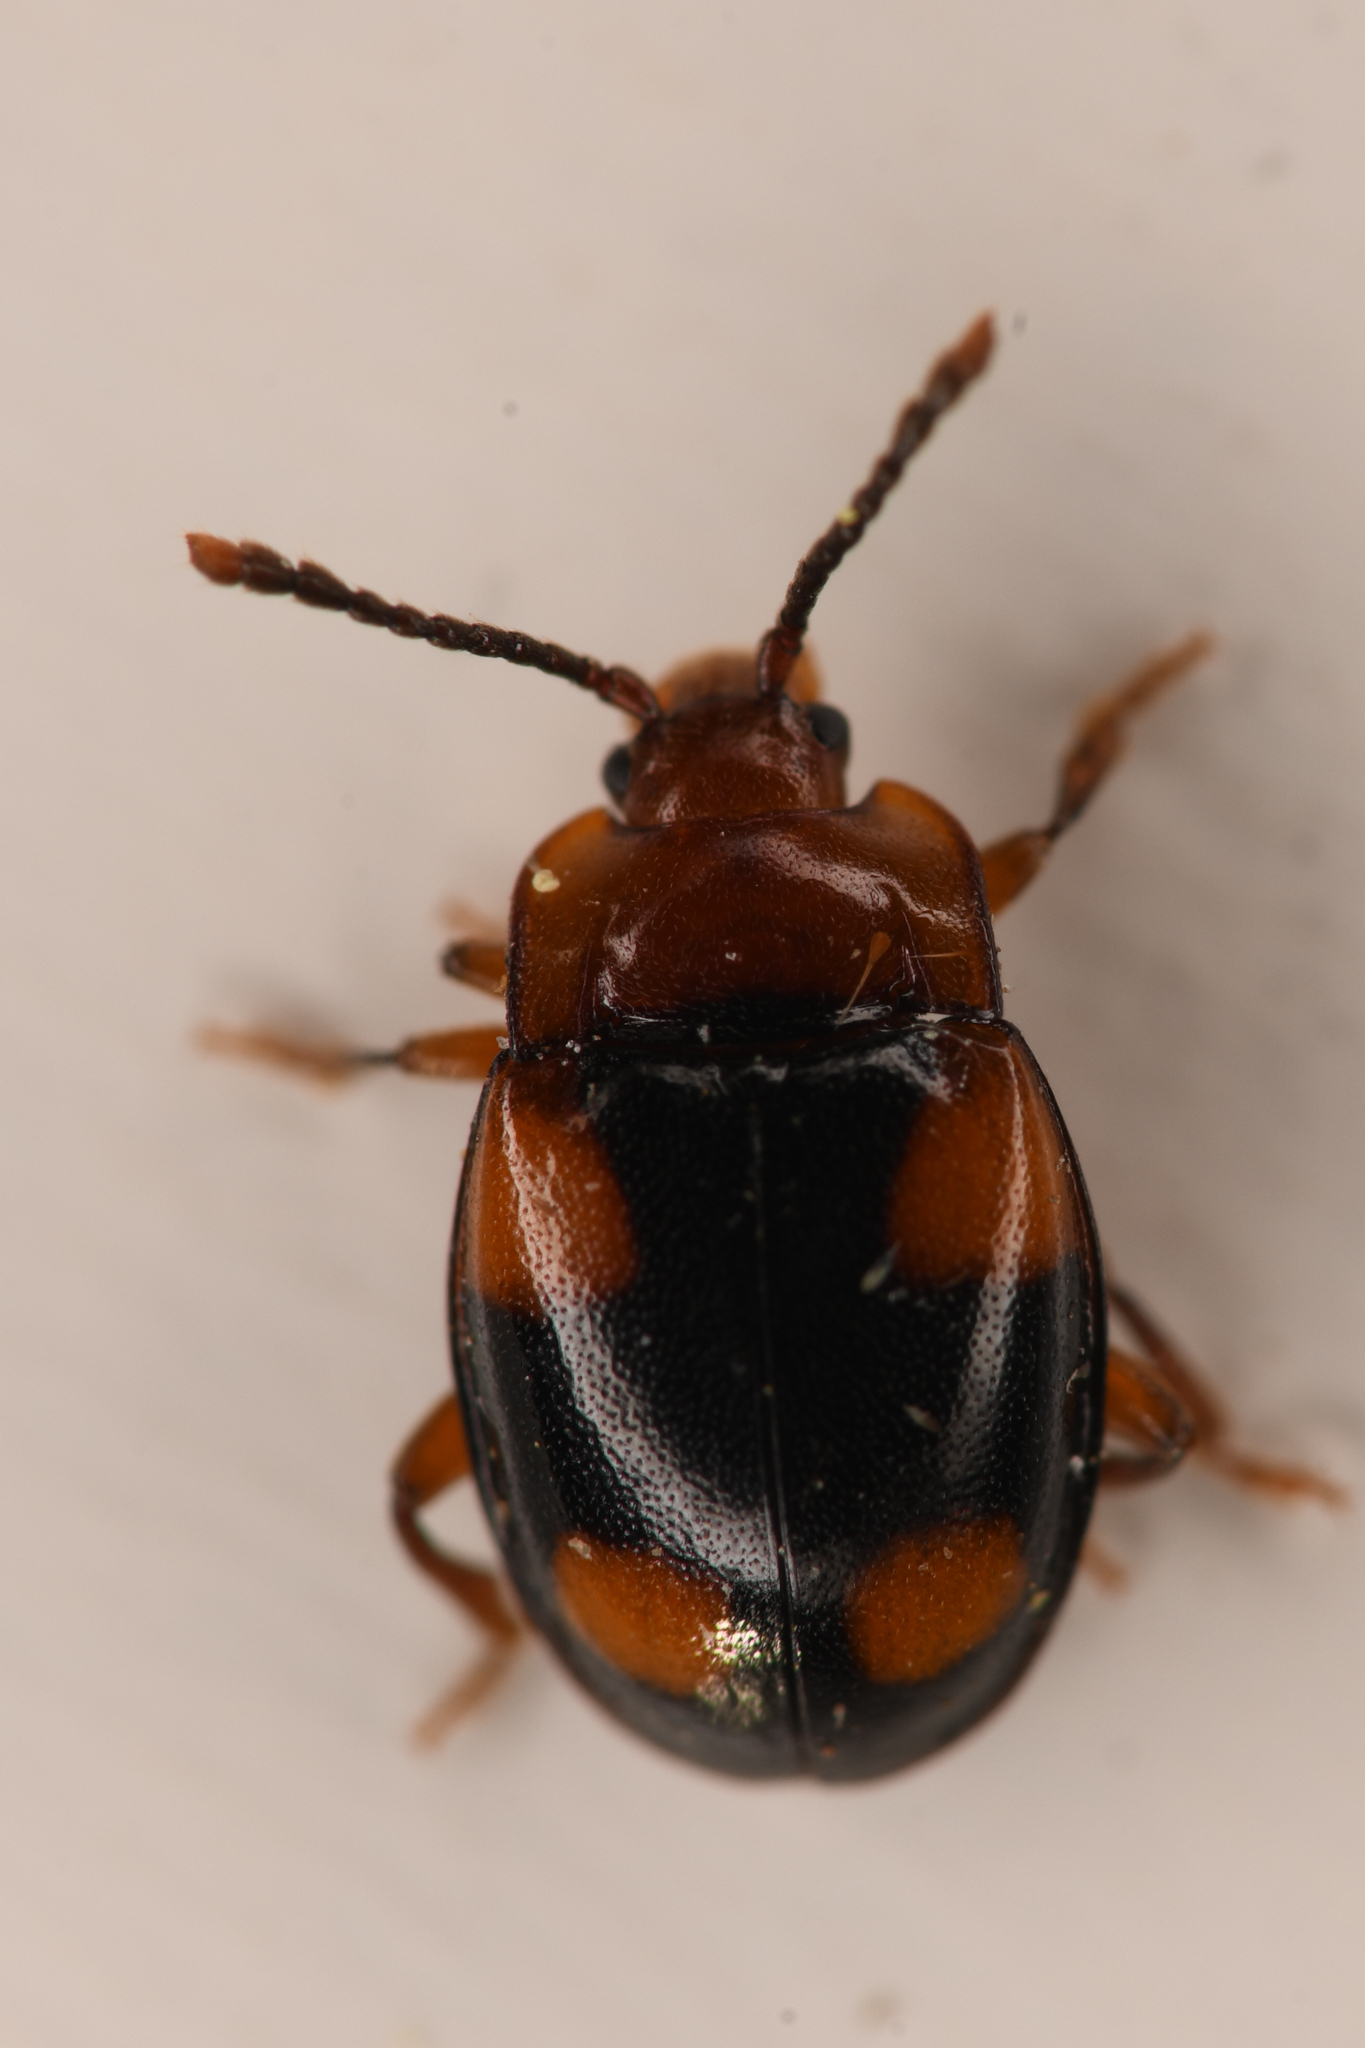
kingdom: Animalia
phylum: Arthropoda
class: Insecta
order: Coleoptera
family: Endomychidae
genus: Mycetina
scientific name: Mycetina idahoensis
